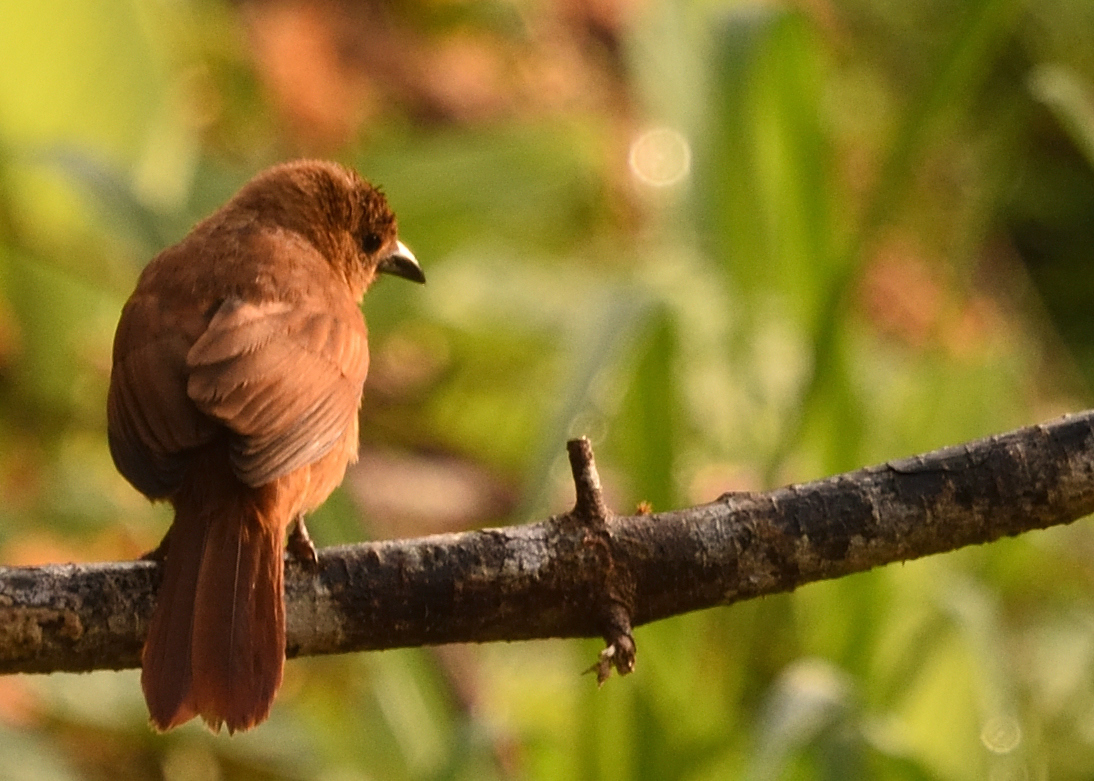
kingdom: Animalia
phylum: Chordata
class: Aves
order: Passeriformes
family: Thraupidae
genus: Tachyphonus
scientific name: Tachyphonus rufus
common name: White-lined tanager
